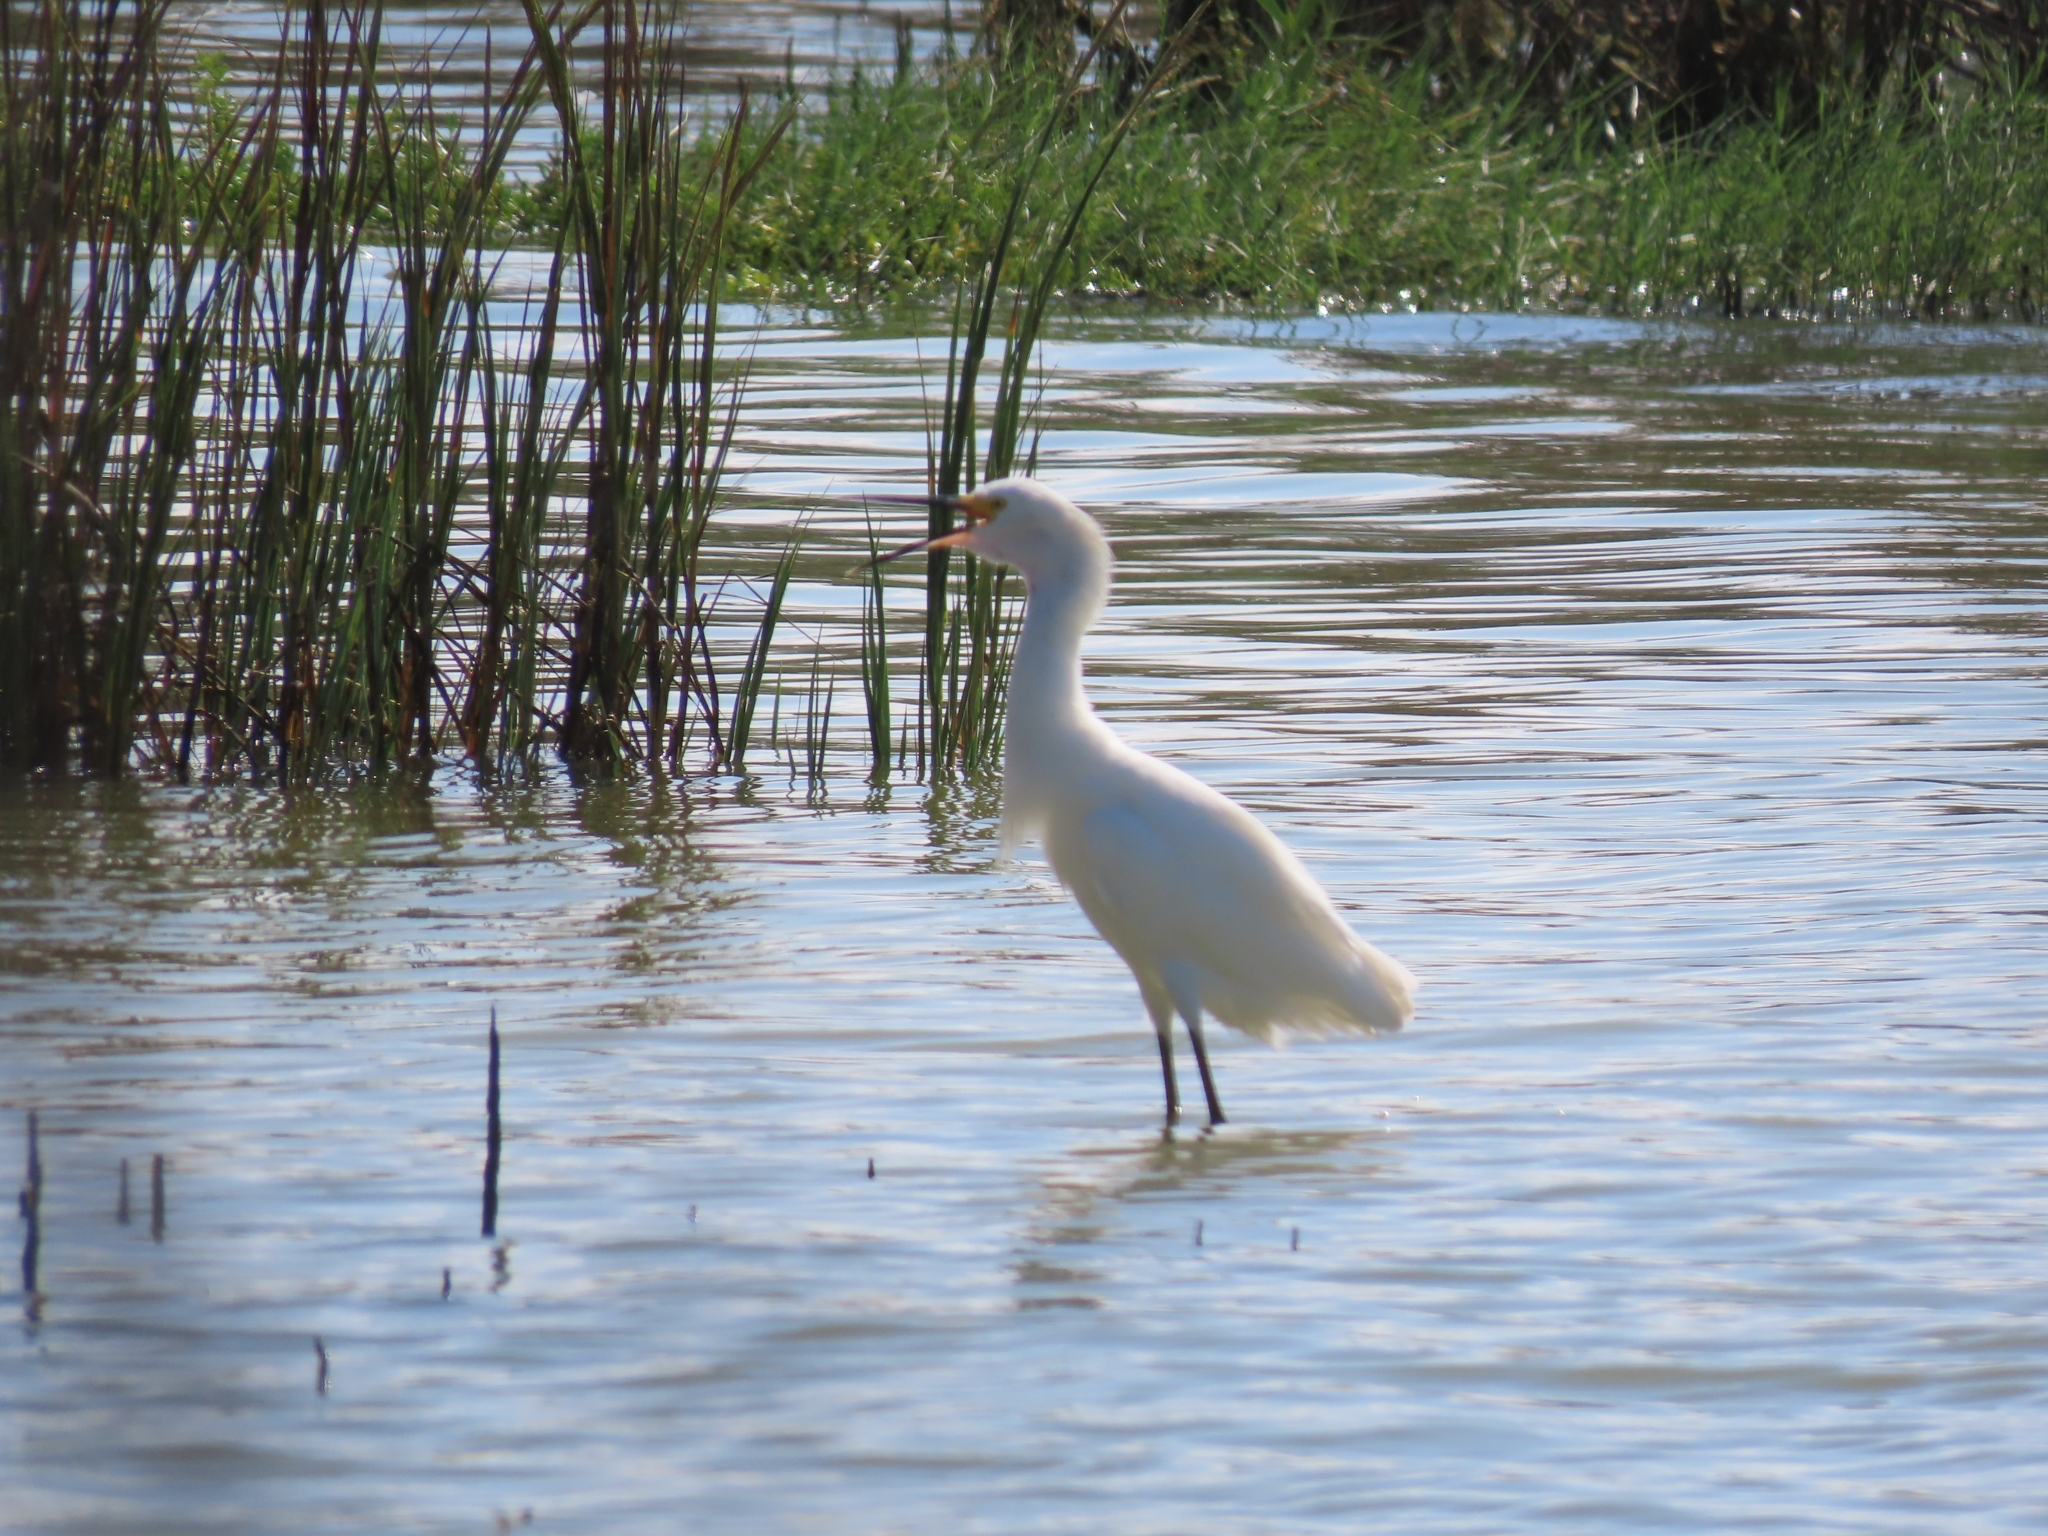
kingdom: Animalia
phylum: Chordata
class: Aves
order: Pelecaniformes
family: Ardeidae
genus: Egretta
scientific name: Egretta thula
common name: Snowy egret
